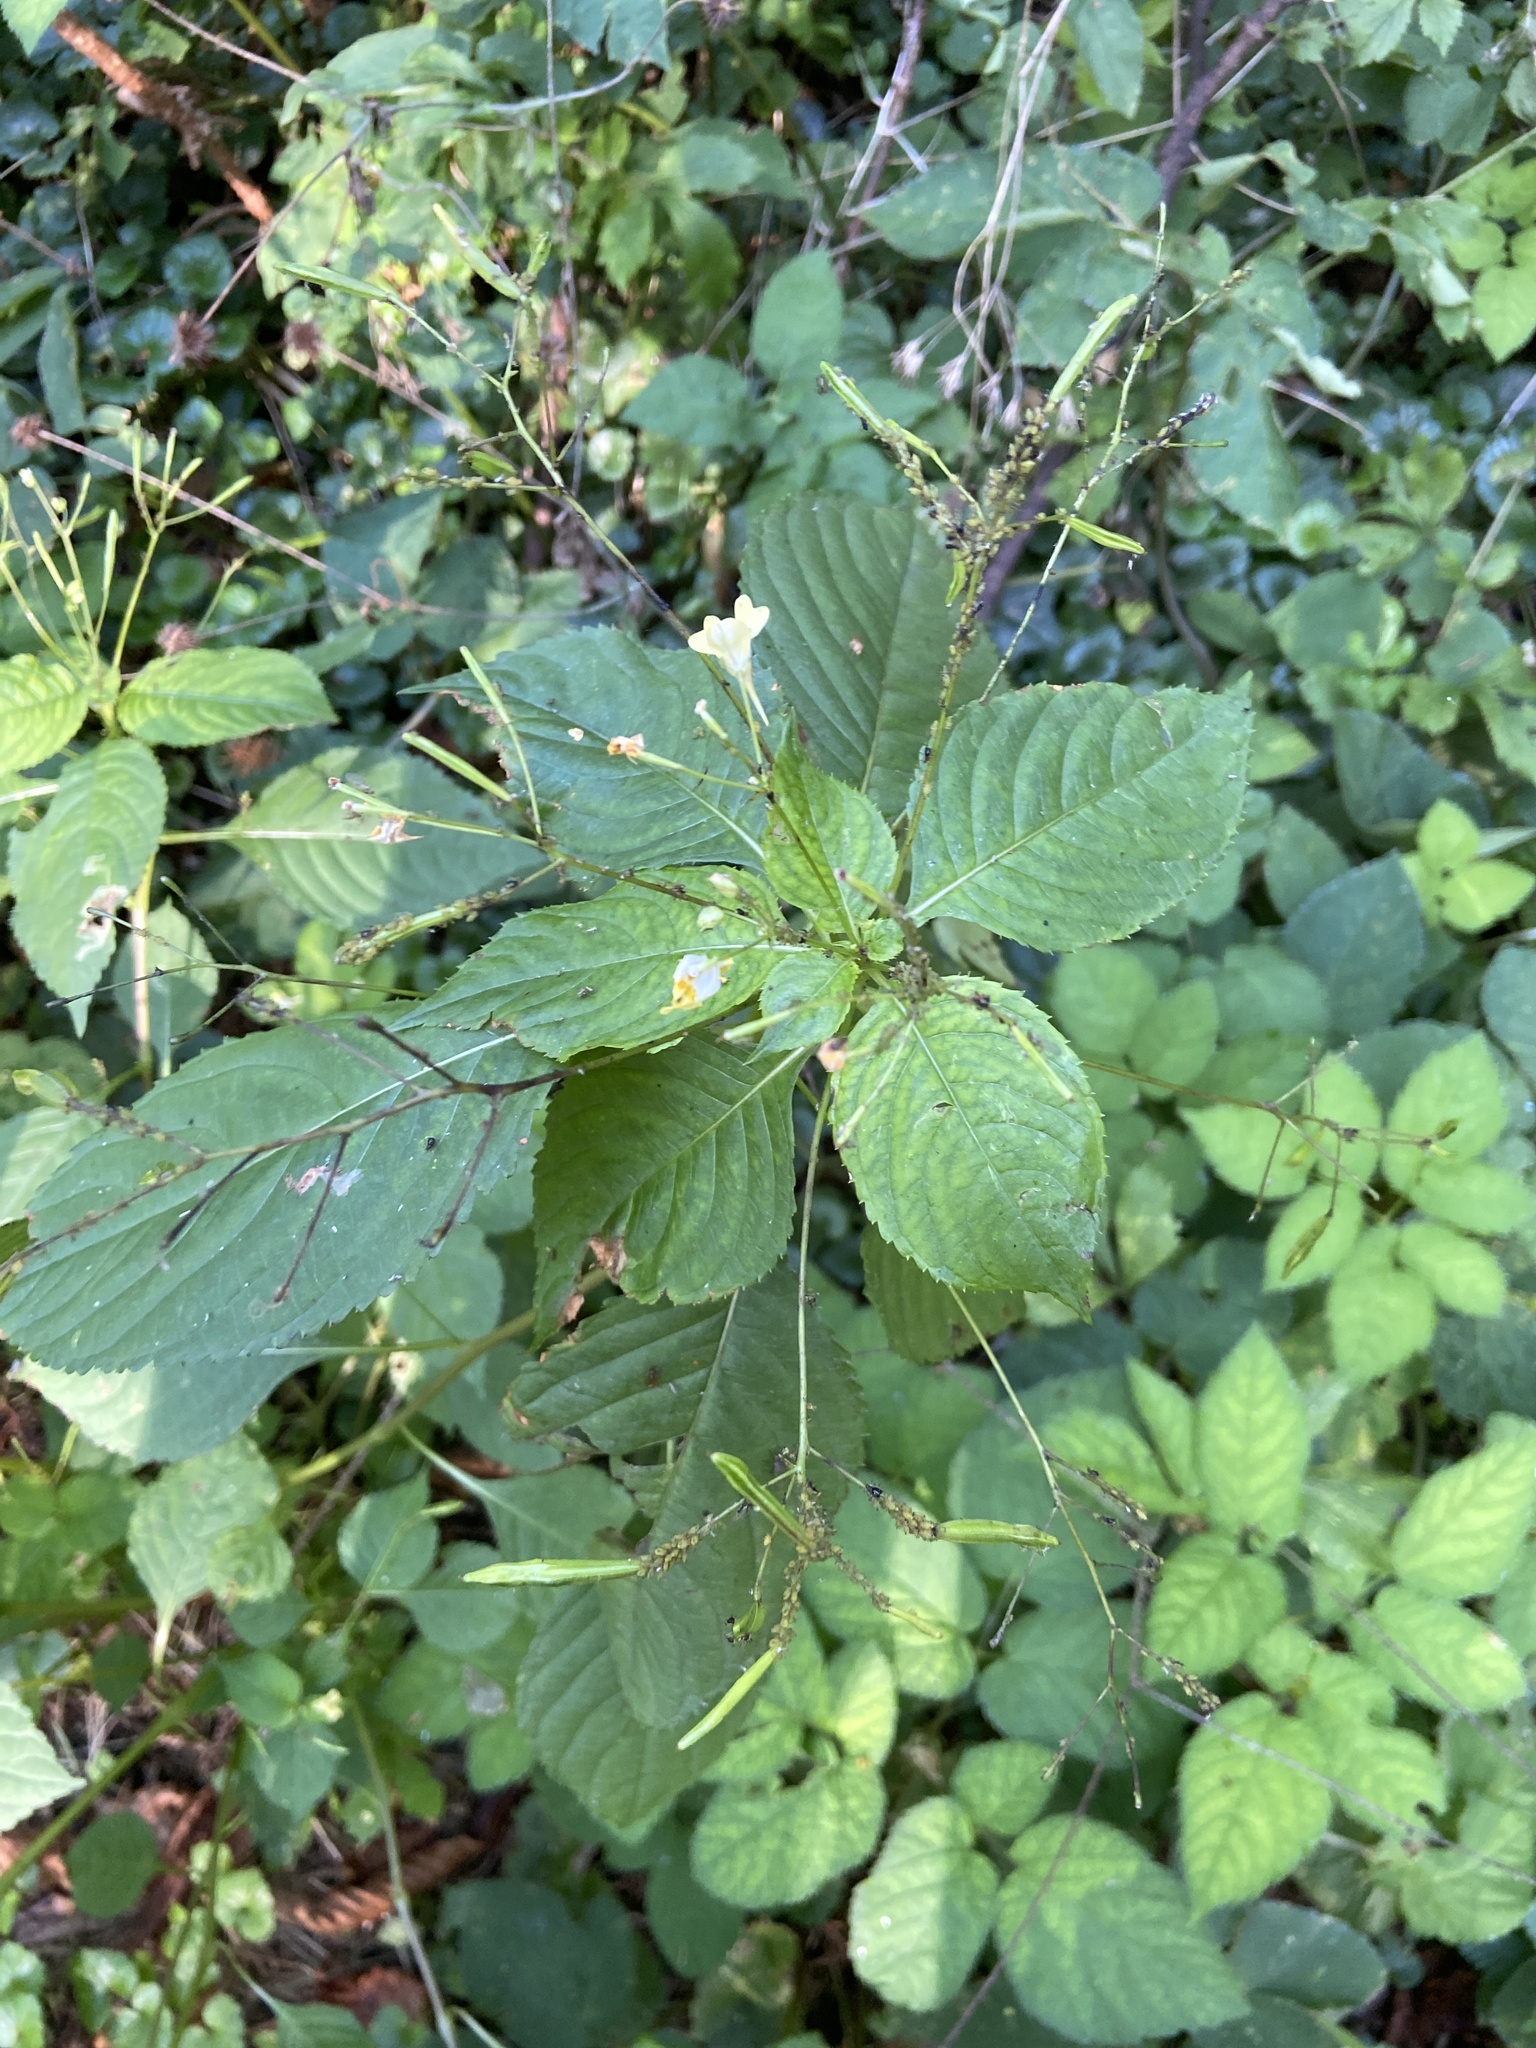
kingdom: Animalia
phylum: Arthropoda
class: Insecta
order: Hemiptera
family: Aphididae
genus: Impatientinum
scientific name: Impatientinum asiaticum
